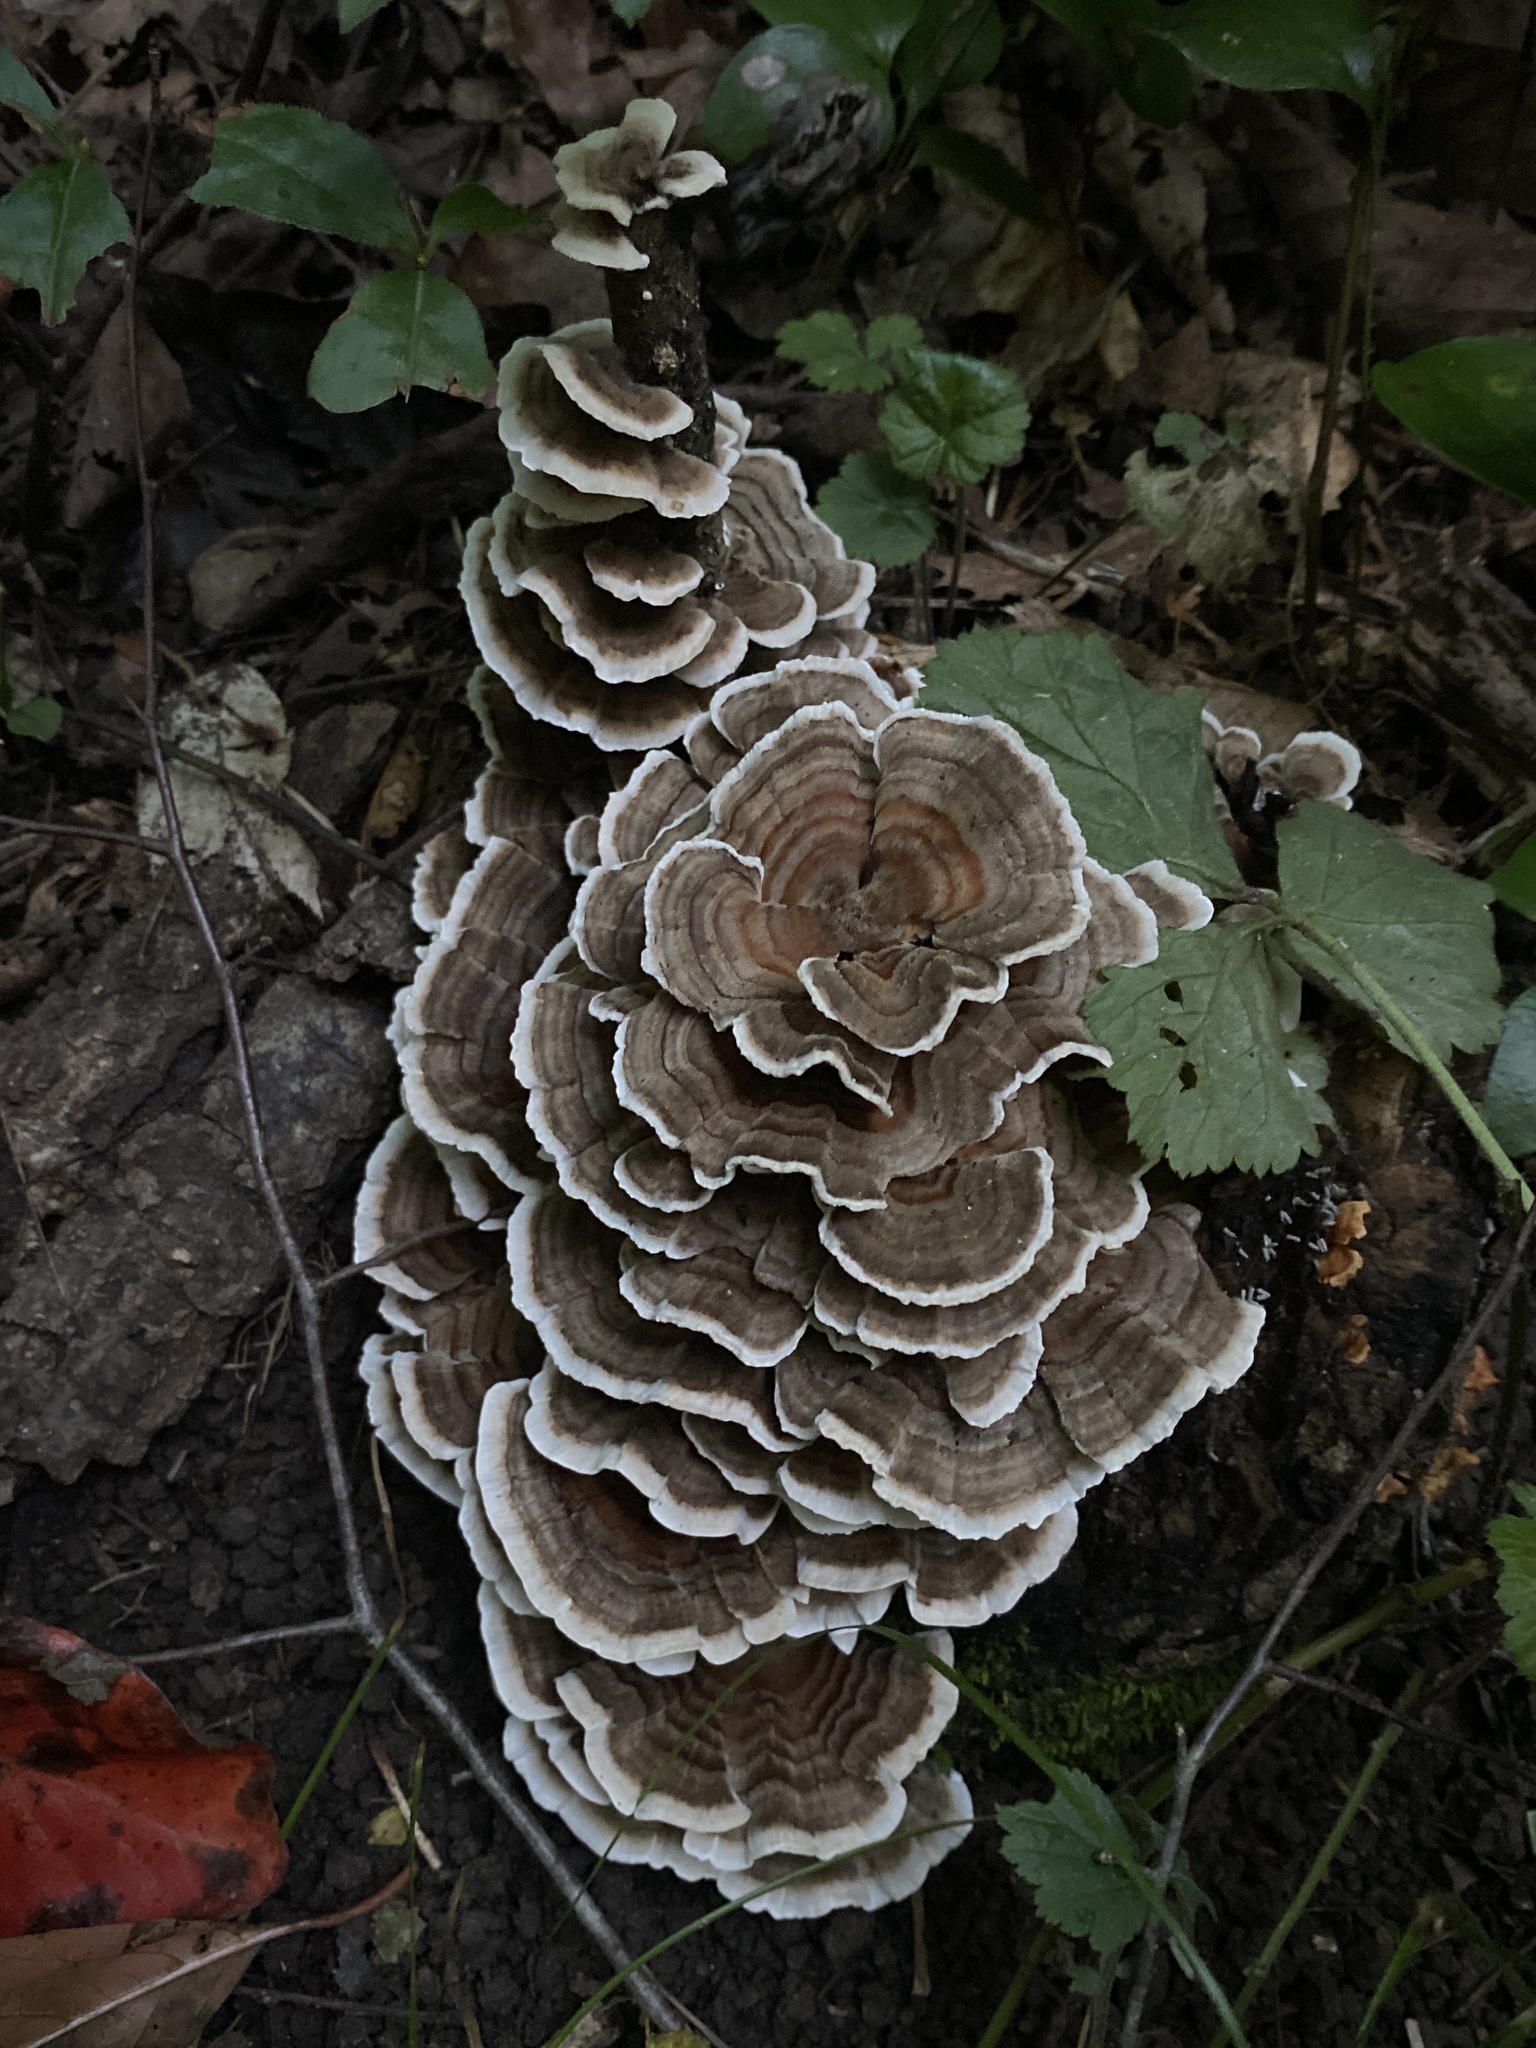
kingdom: Fungi
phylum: Basidiomycota
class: Agaricomycetes
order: Polyporales
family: Polyporaceae
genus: Trametes
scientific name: Trametes versicolor
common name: Turkeytail
